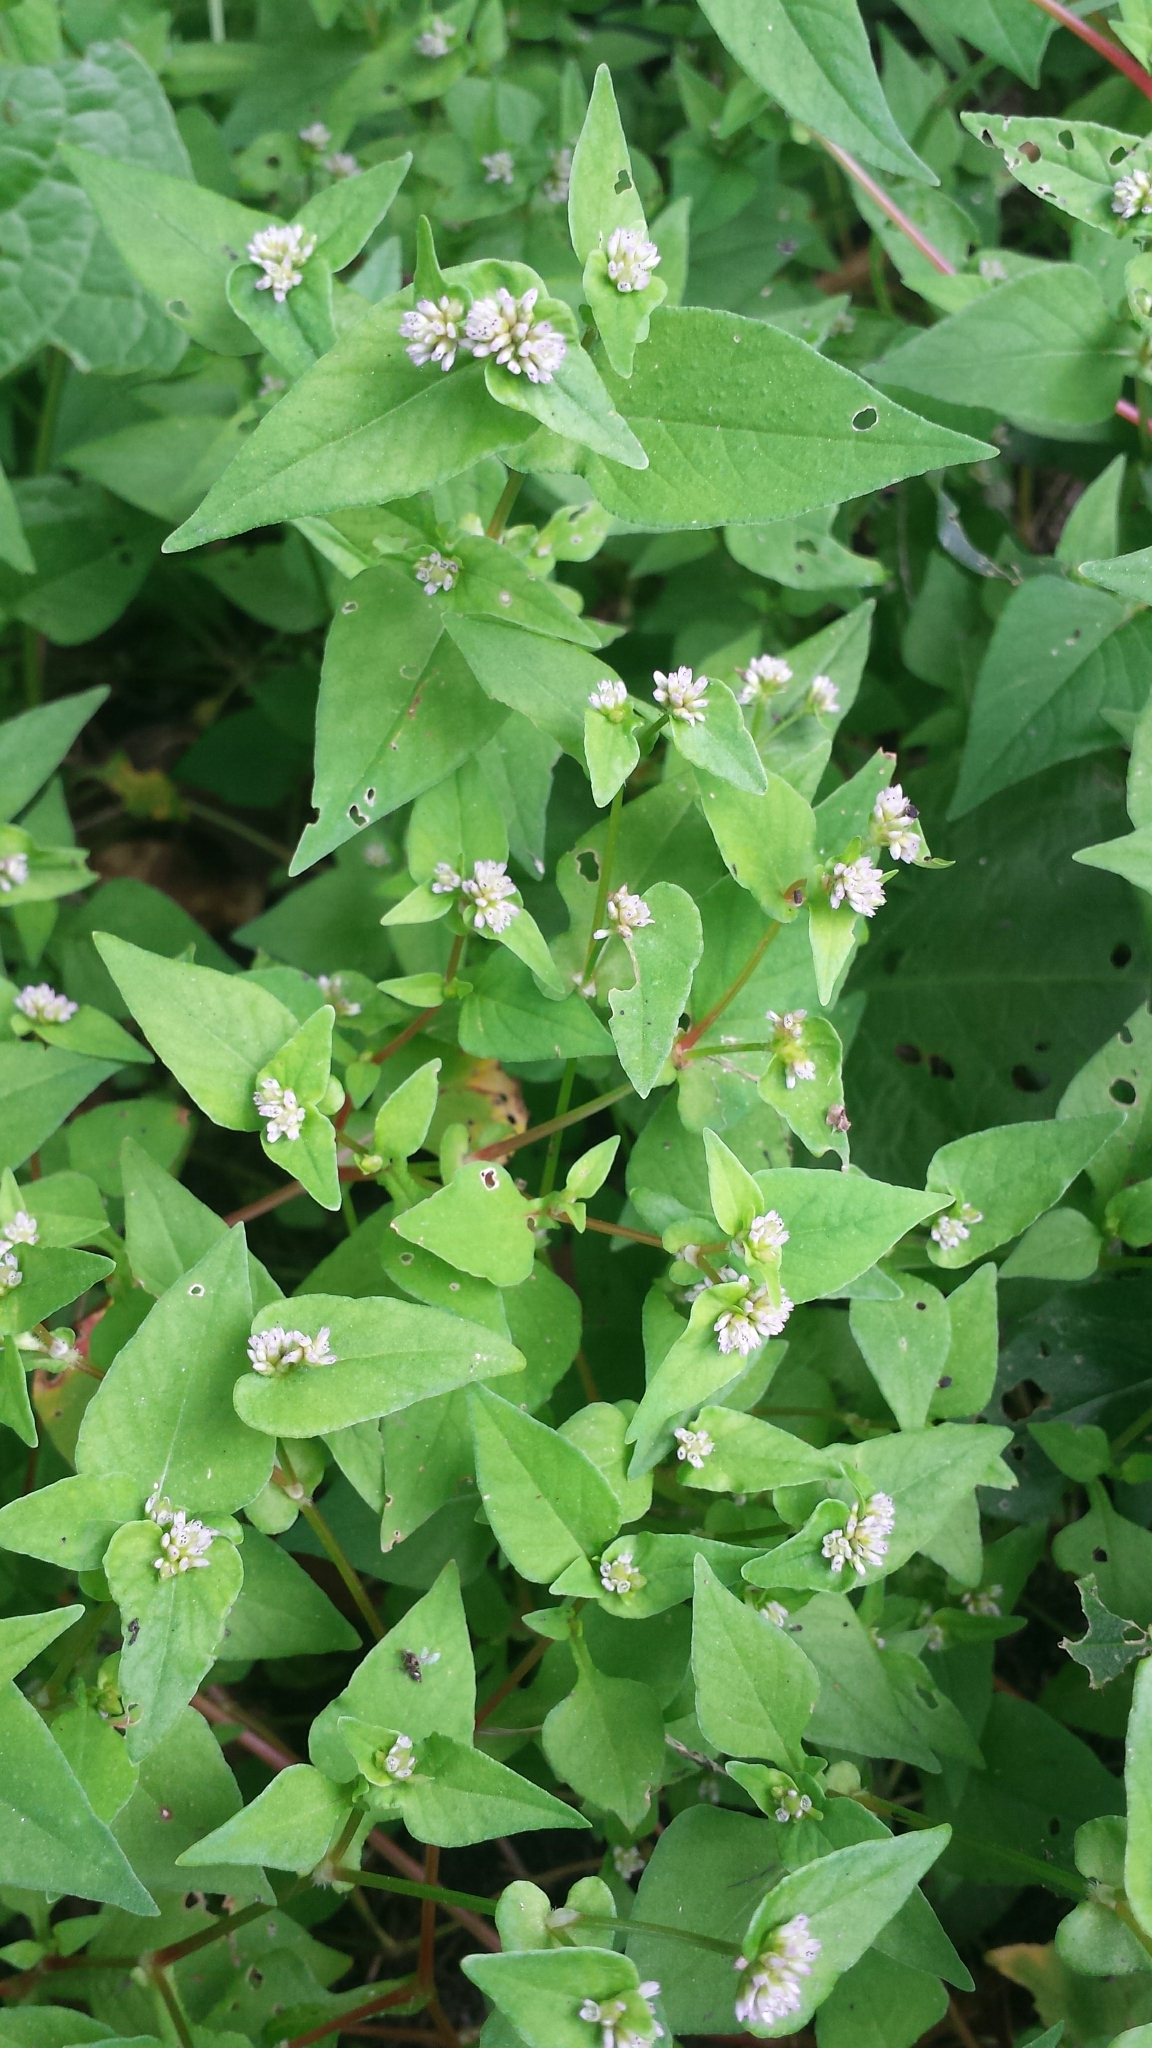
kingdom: Plantae
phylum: Tracheophyta
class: Magnoliopsida
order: Caryophyllales
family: Polygonaceae
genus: Persicaria
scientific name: Persicaria nepalensis
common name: Nepal persicaria
